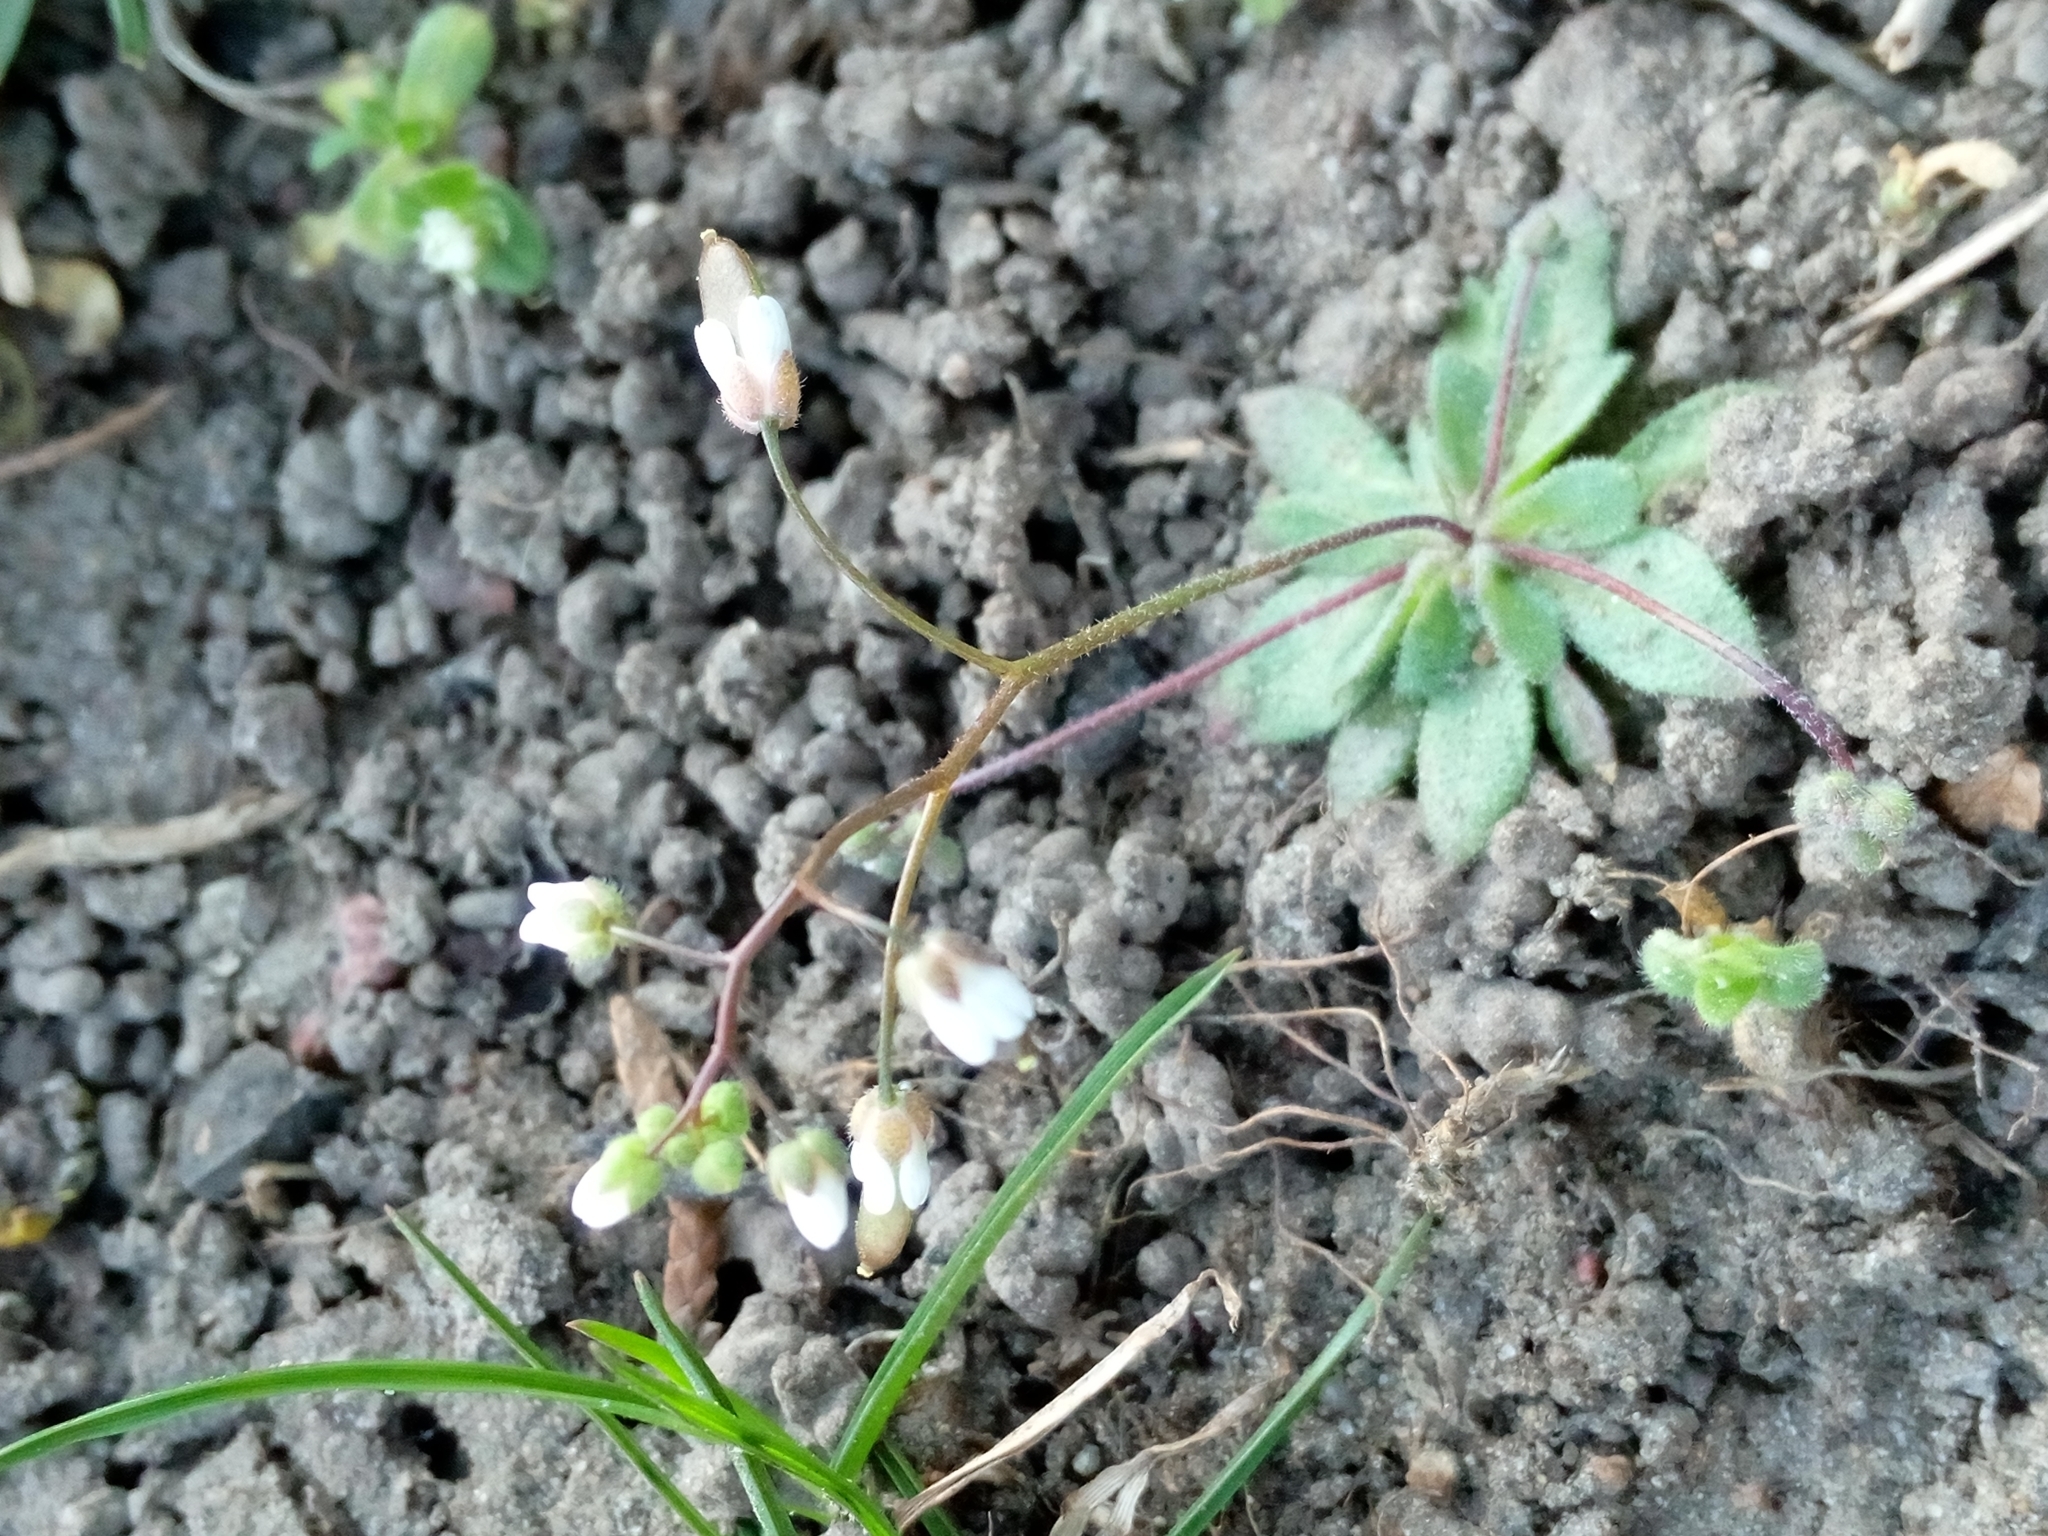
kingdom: Plantae
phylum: Tracheophyta
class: Magnoliopsida
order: Brassicales
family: Brassicaceae
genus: Draba
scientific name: Draba verna
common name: Spring draba
